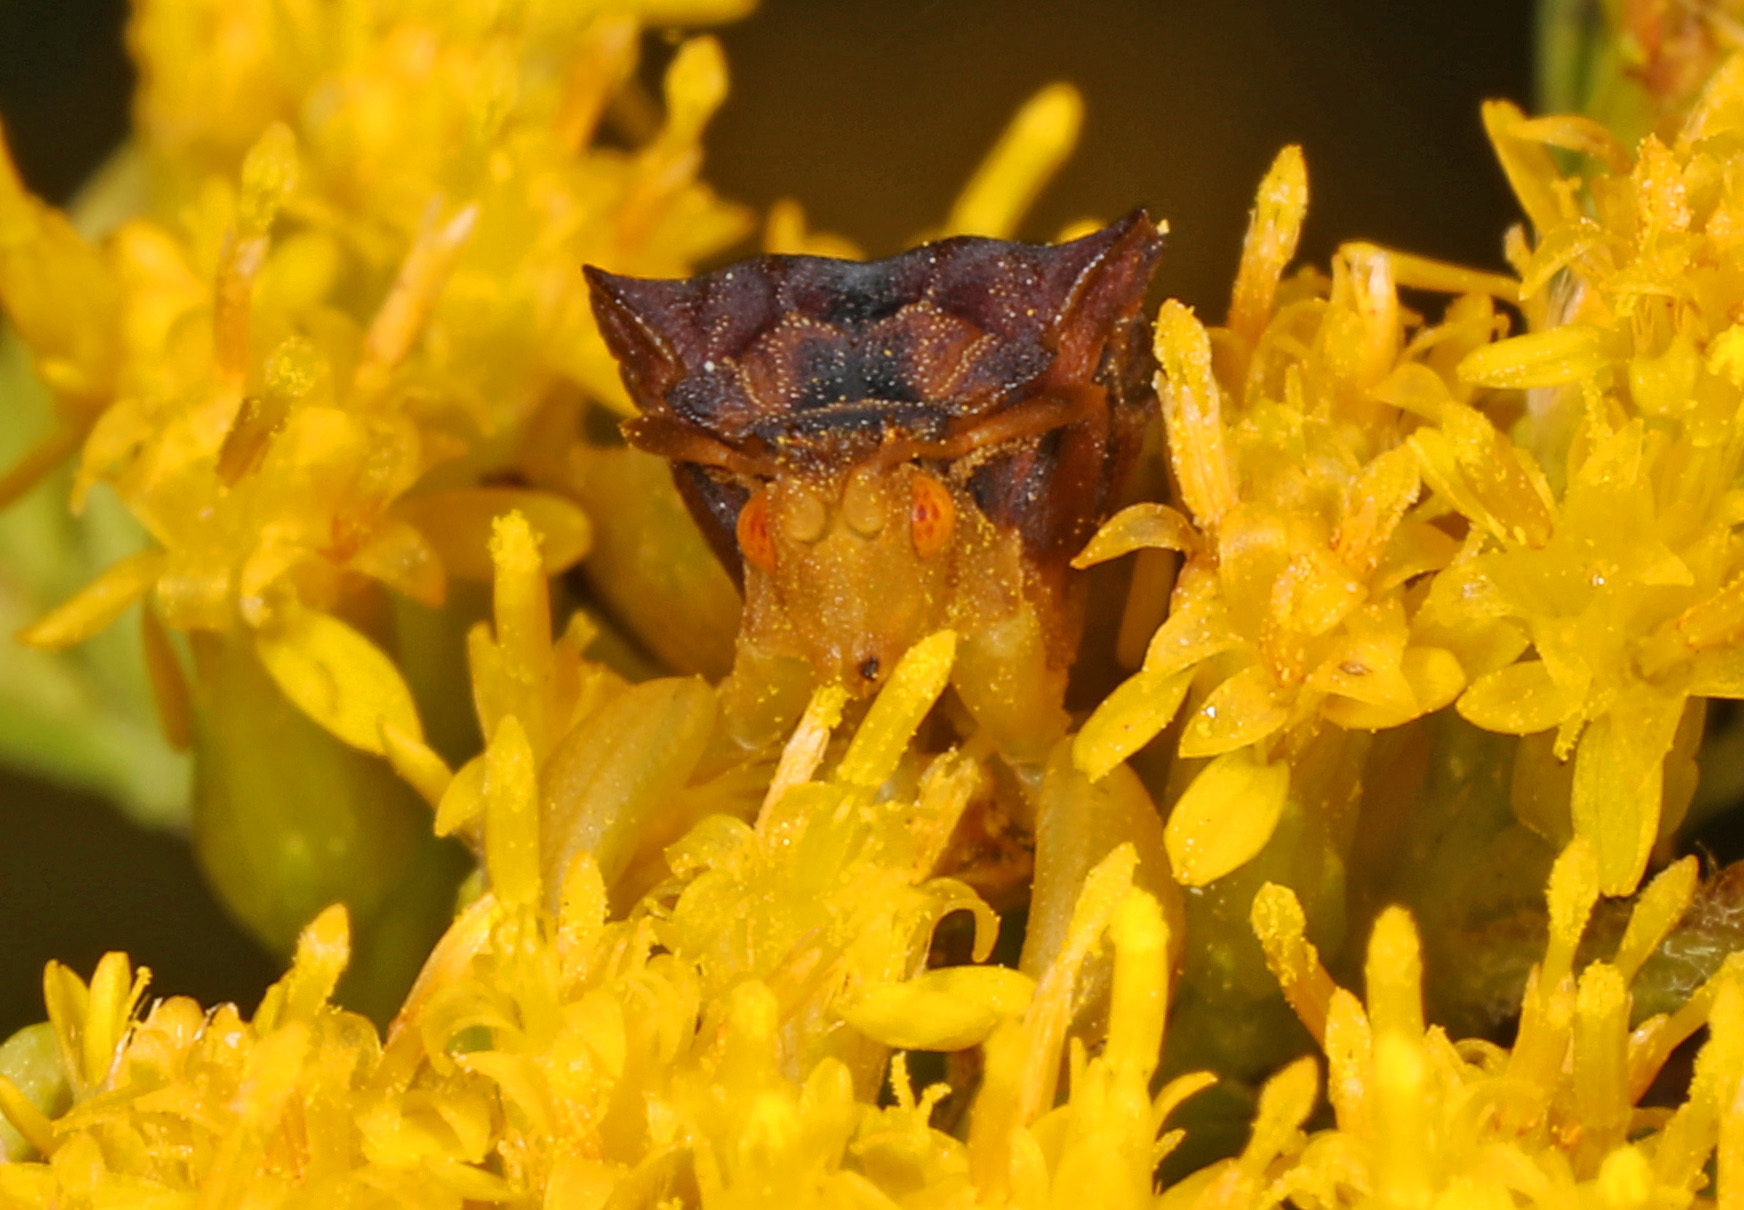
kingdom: Animalia
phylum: Arthropoda
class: Insecta
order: Hemiptera
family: Reduviidae
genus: Phymata
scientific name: Phymata pennsylvanica
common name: Pennsylvania ambush bug
